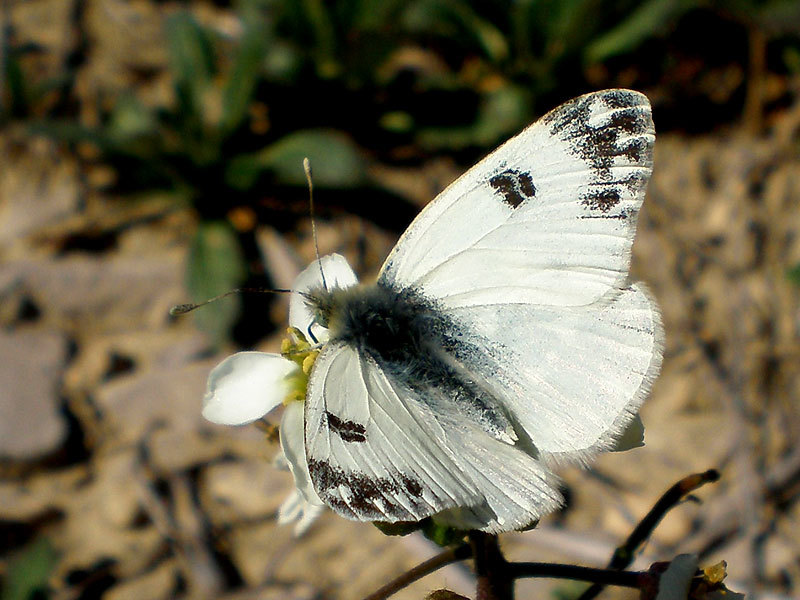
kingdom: Animalia
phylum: Arthropoda
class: Insecta
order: Lepidoptera
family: Pieridae
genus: Pontia
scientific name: Pontia daplidice
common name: Bath white
